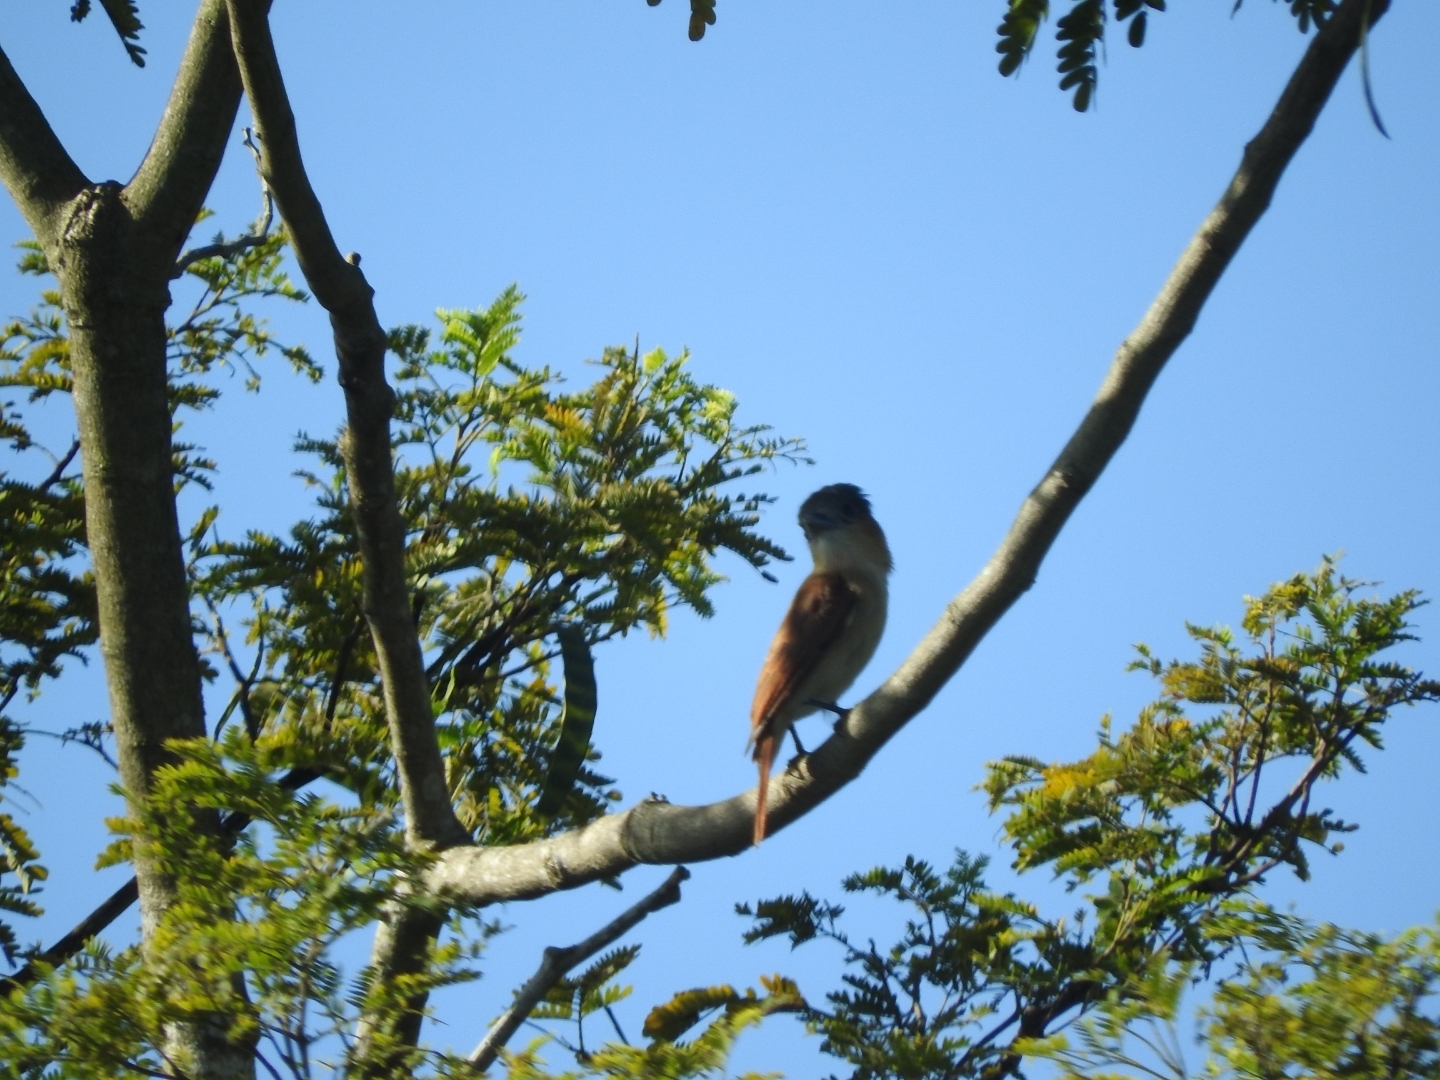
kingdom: Animalia
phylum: Chordata
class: Aves
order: Passeriformes
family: Cotingidae
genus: Pachyramphus
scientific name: Pachyramphus aglaiae
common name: Rose-throated becard
